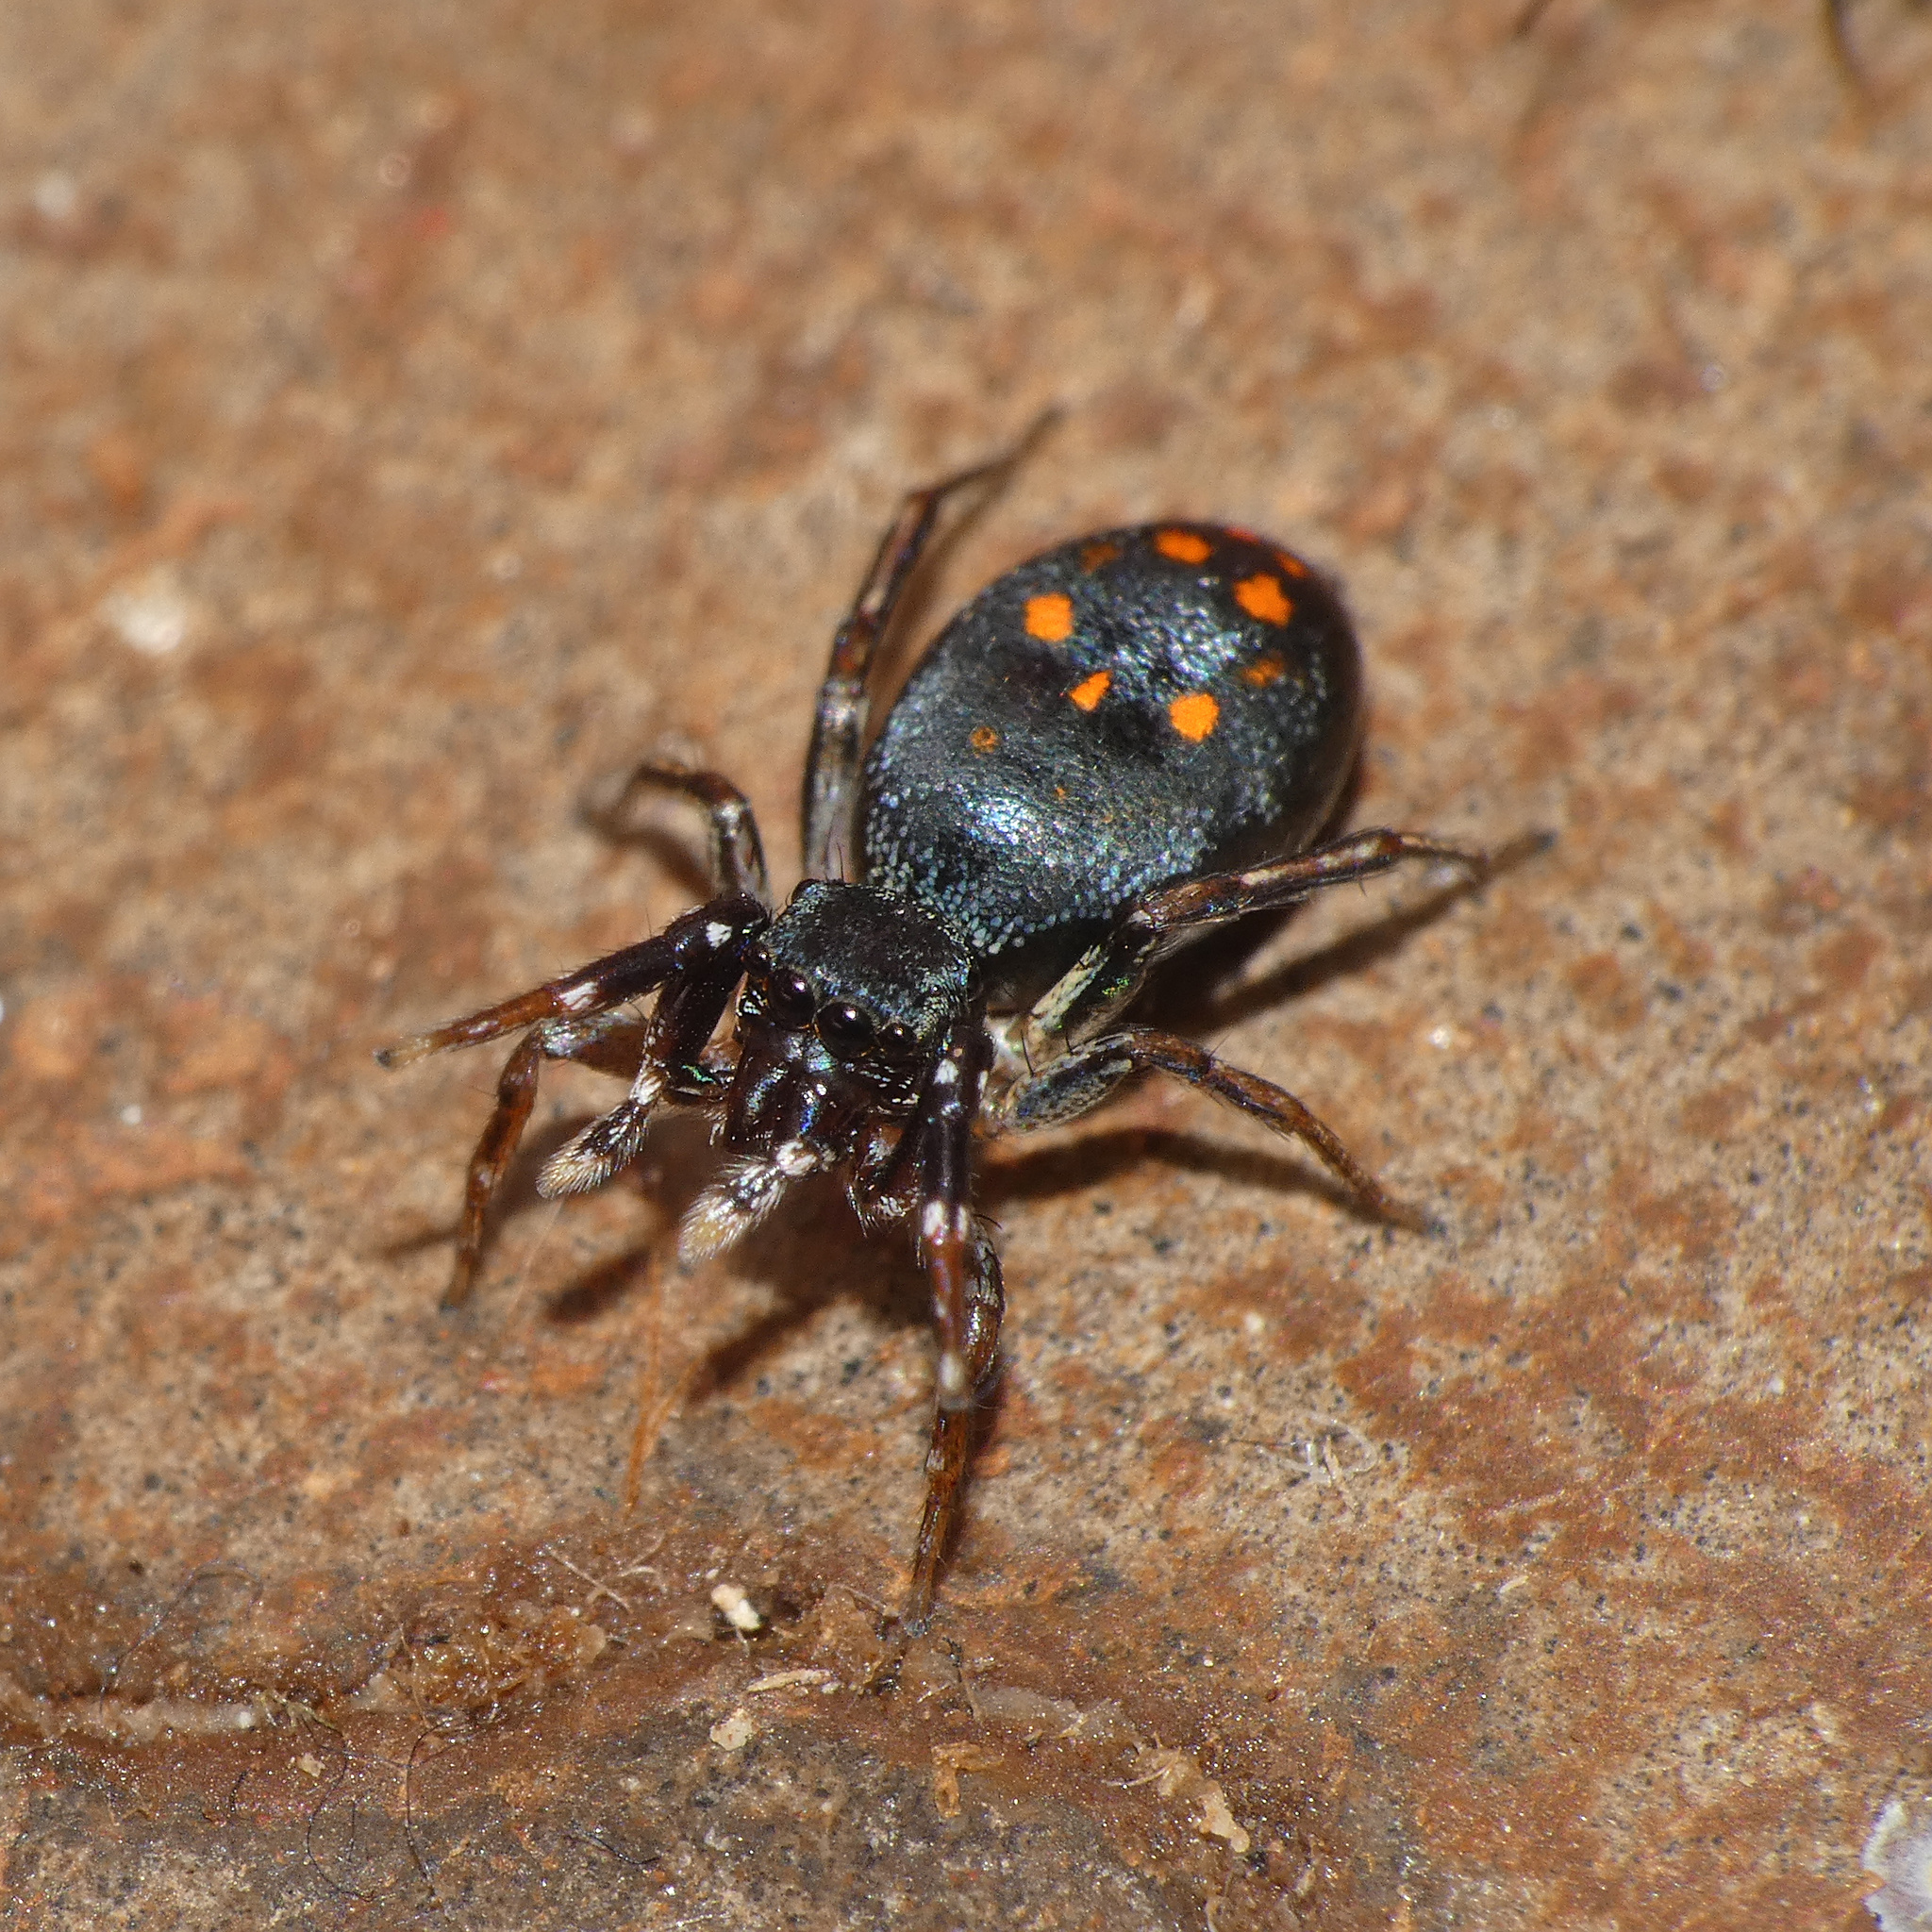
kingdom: Animalia
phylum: Arthropoda
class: Arachnida
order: Araneae
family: Salticidae
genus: Natta
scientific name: Natta horizontalis
